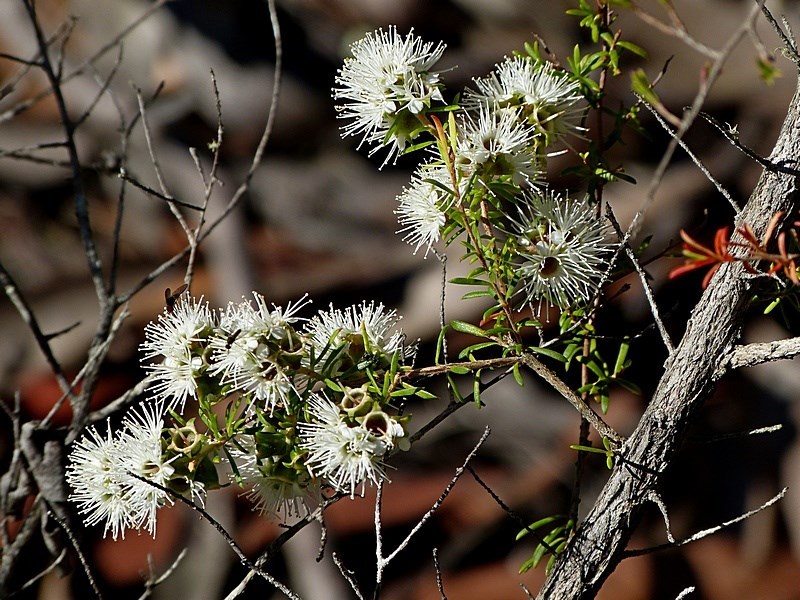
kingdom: Plantae
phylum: Tracheophyta
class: Magnoliopsida
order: Myrtales
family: Myrtaceae
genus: Kunzea
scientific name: Kunzea ambigua
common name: Tickbush
